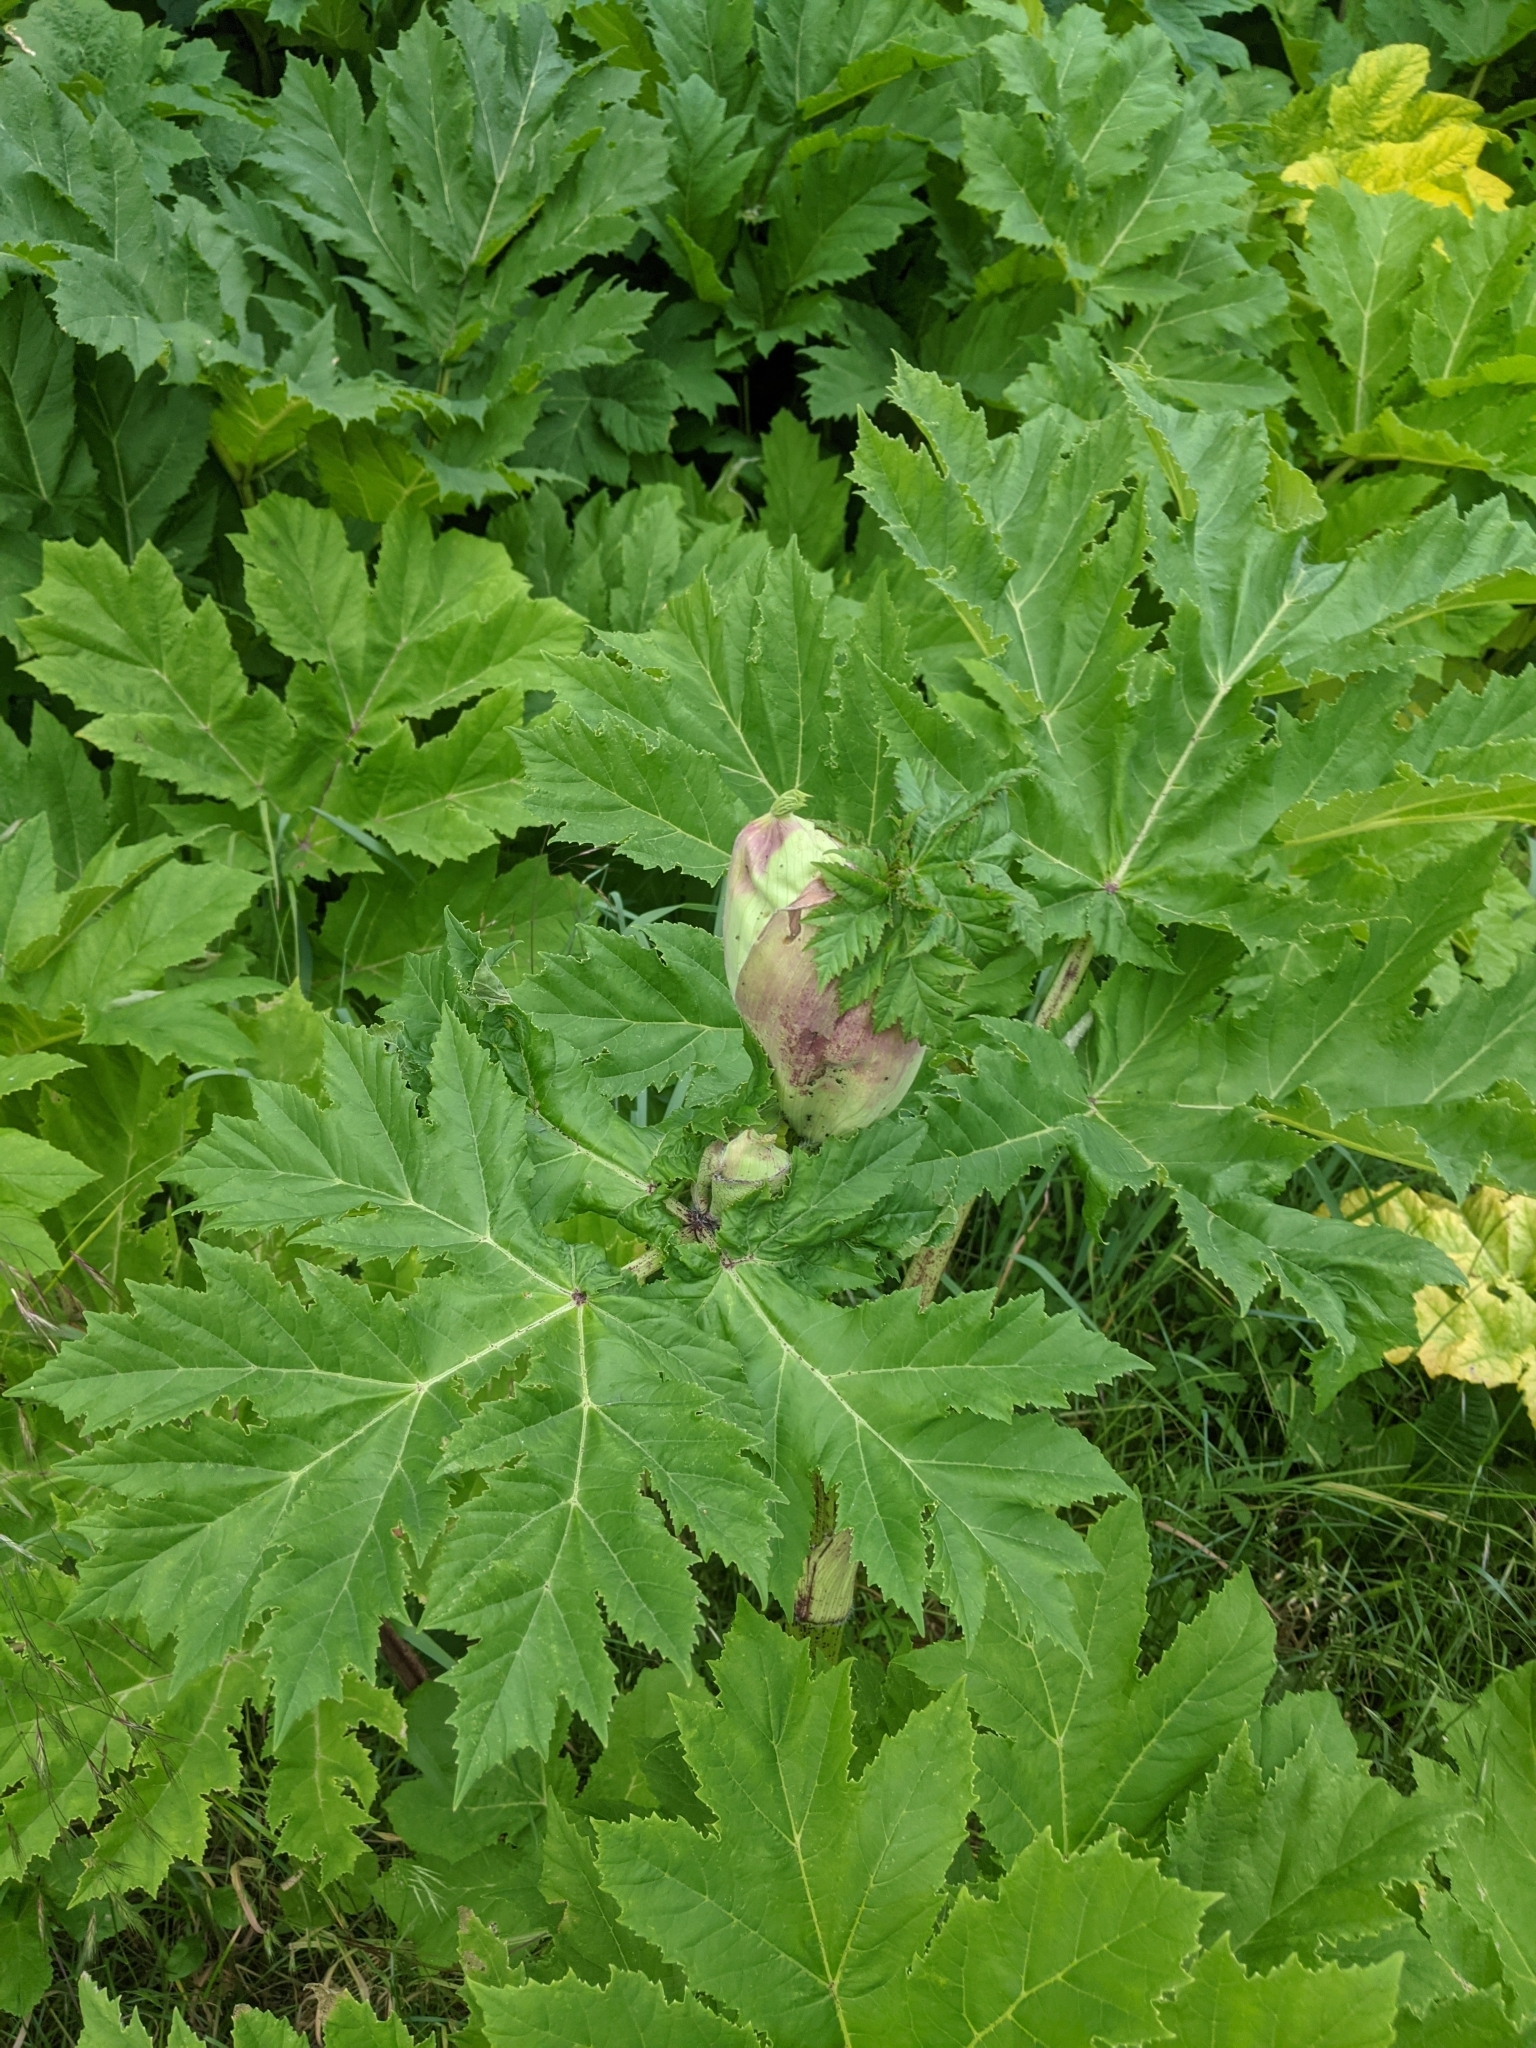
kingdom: Plantae
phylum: Tracheophyta
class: Magnoliopsida
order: Apiales
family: Apiaceae
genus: Heracleum
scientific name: Heracleum sosnowskyi
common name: Sosnowsky's hogweed
